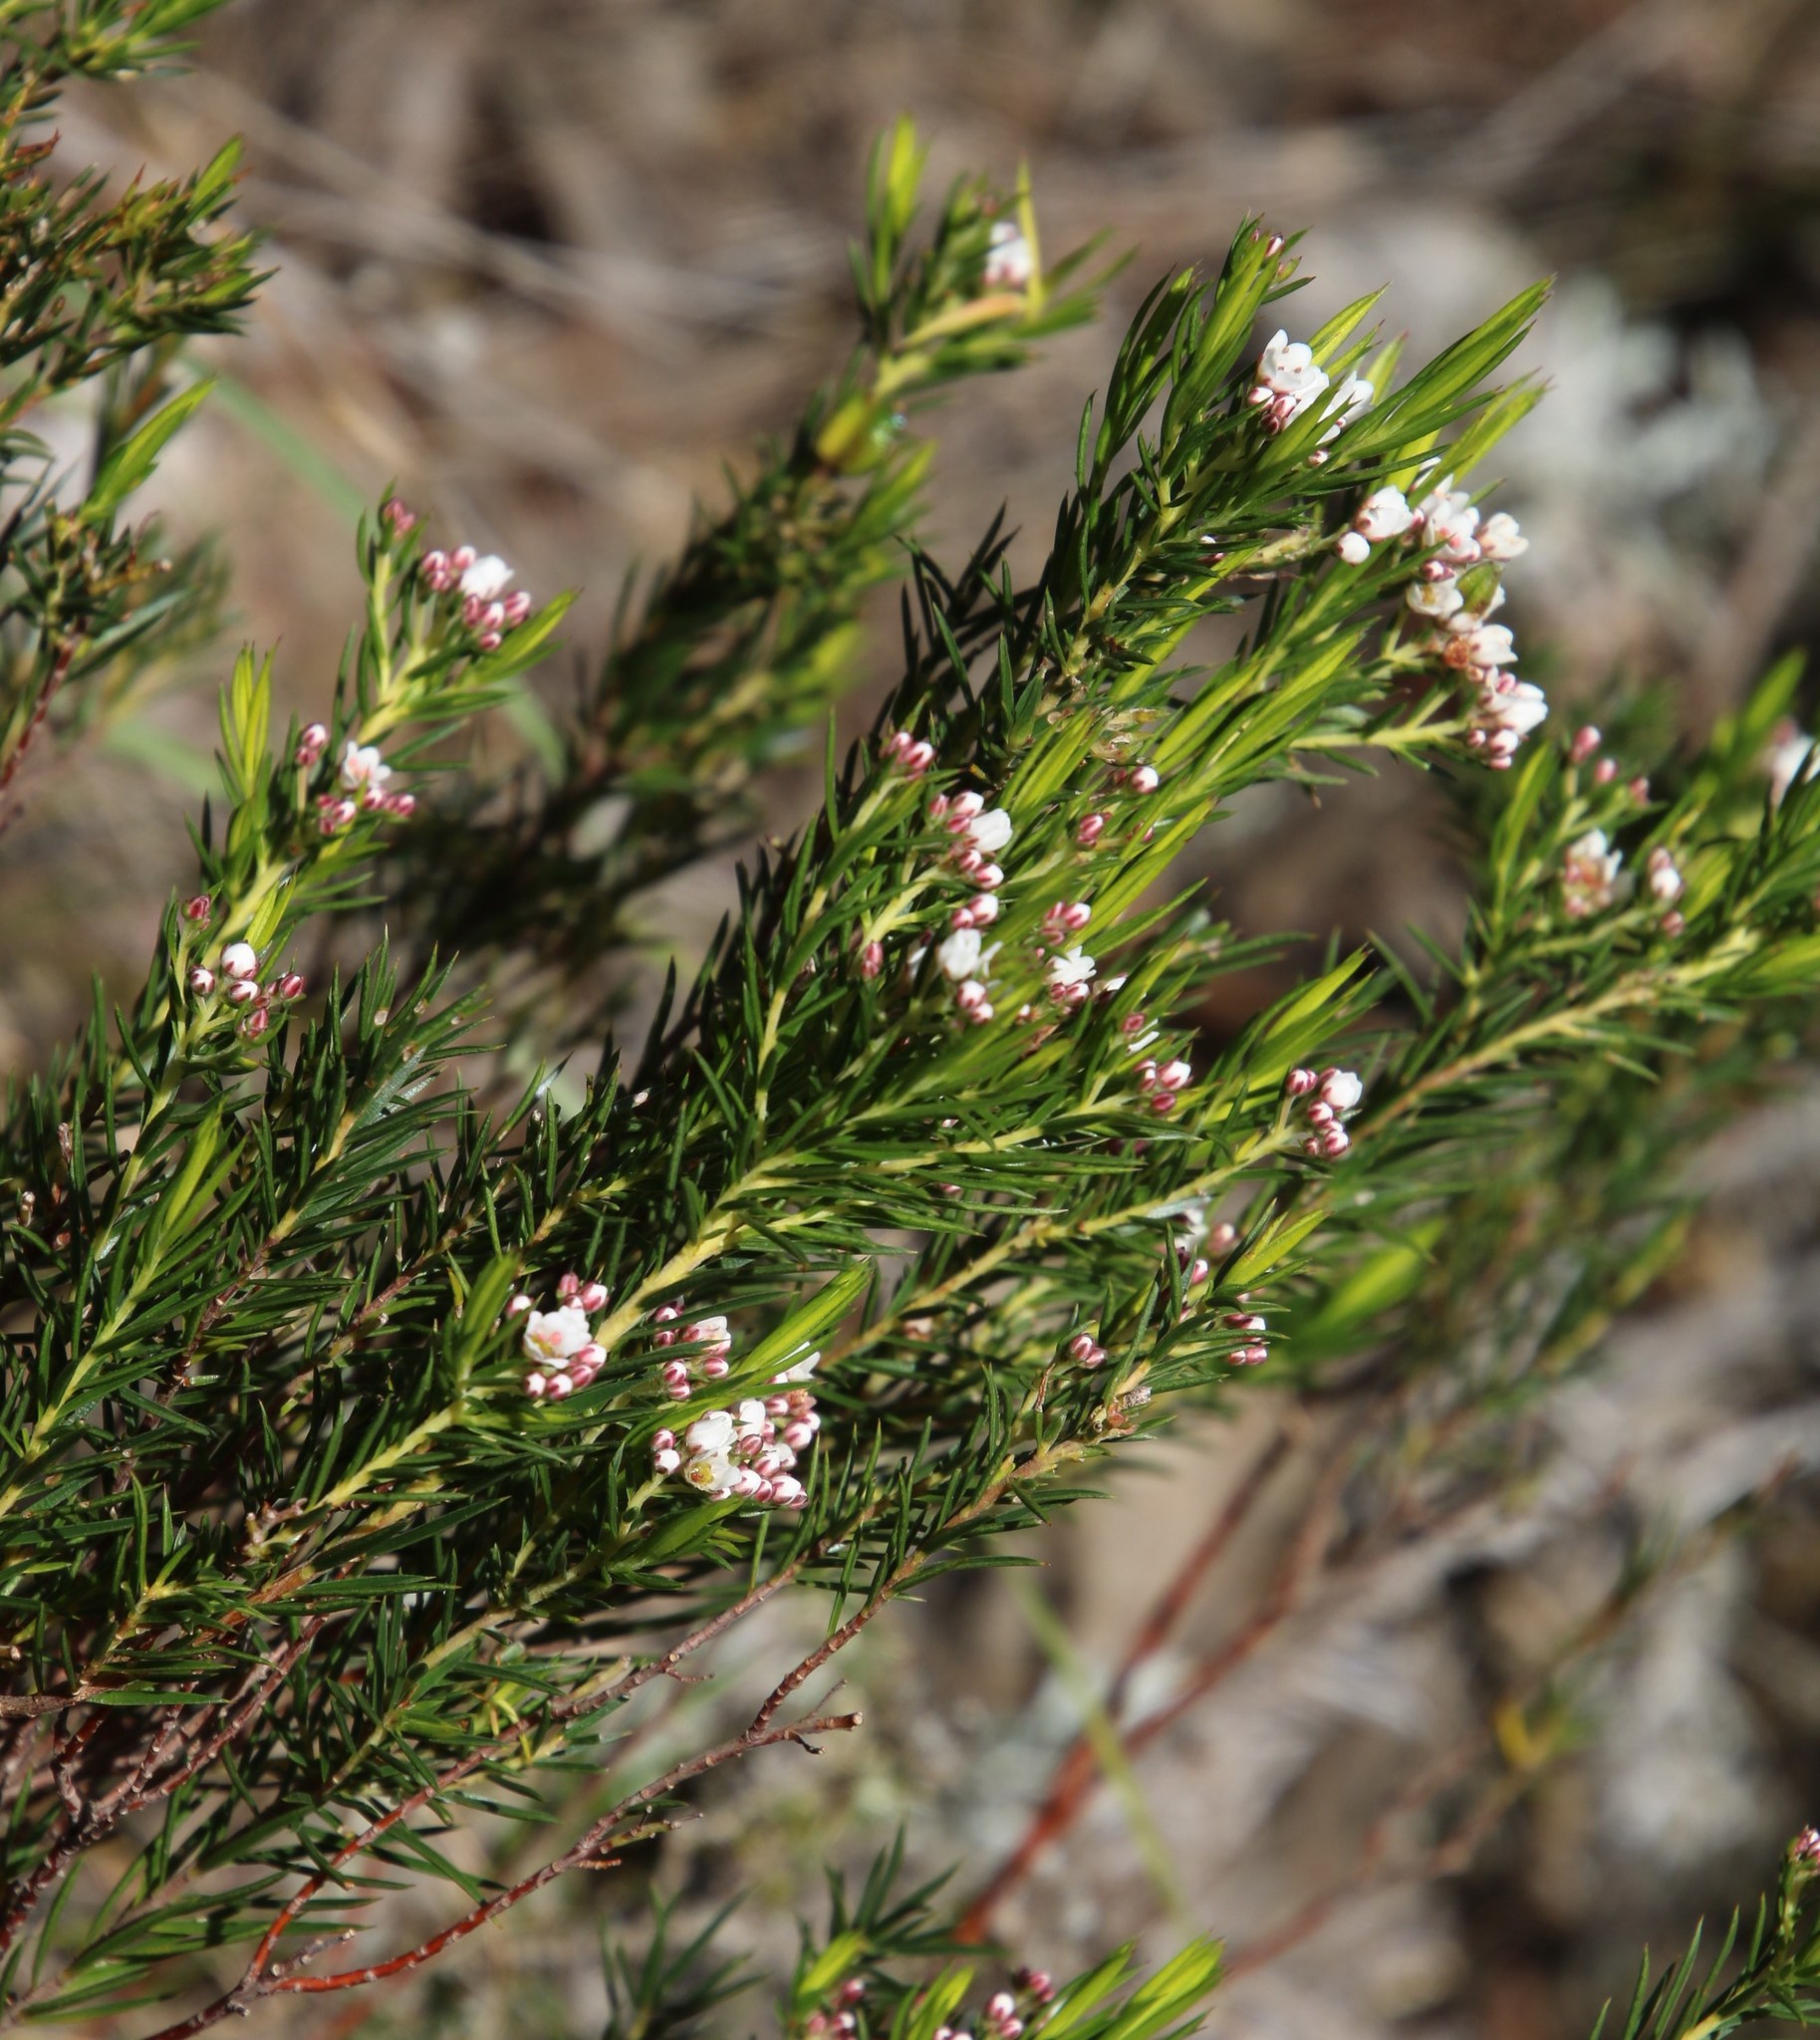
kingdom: Plantae
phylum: Tracheophyta
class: Magnoliopsida
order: Sapindales
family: Rutaceae
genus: Diosma
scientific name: Diosma hirsuta
